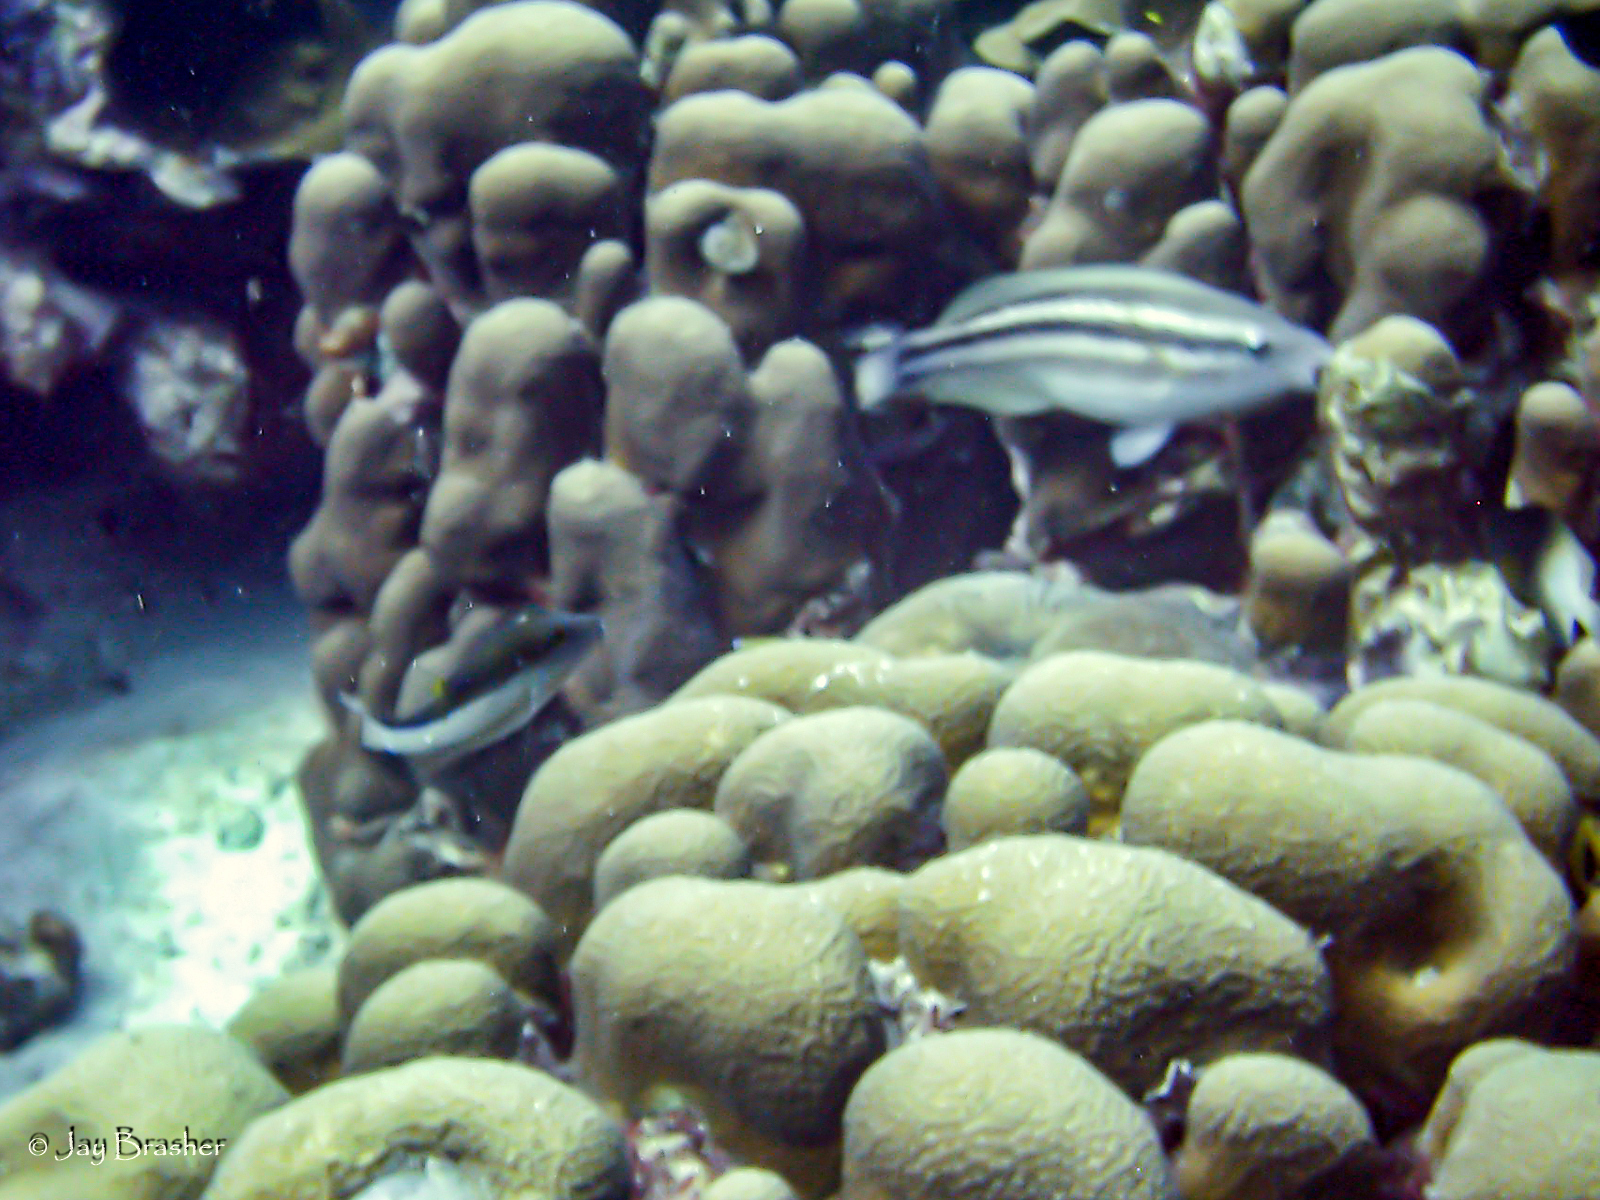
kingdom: Animalia
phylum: Chordata
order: Perciformes
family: Scaridae
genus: Scarus
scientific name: Scarus iseri
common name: Striped parrotfish
